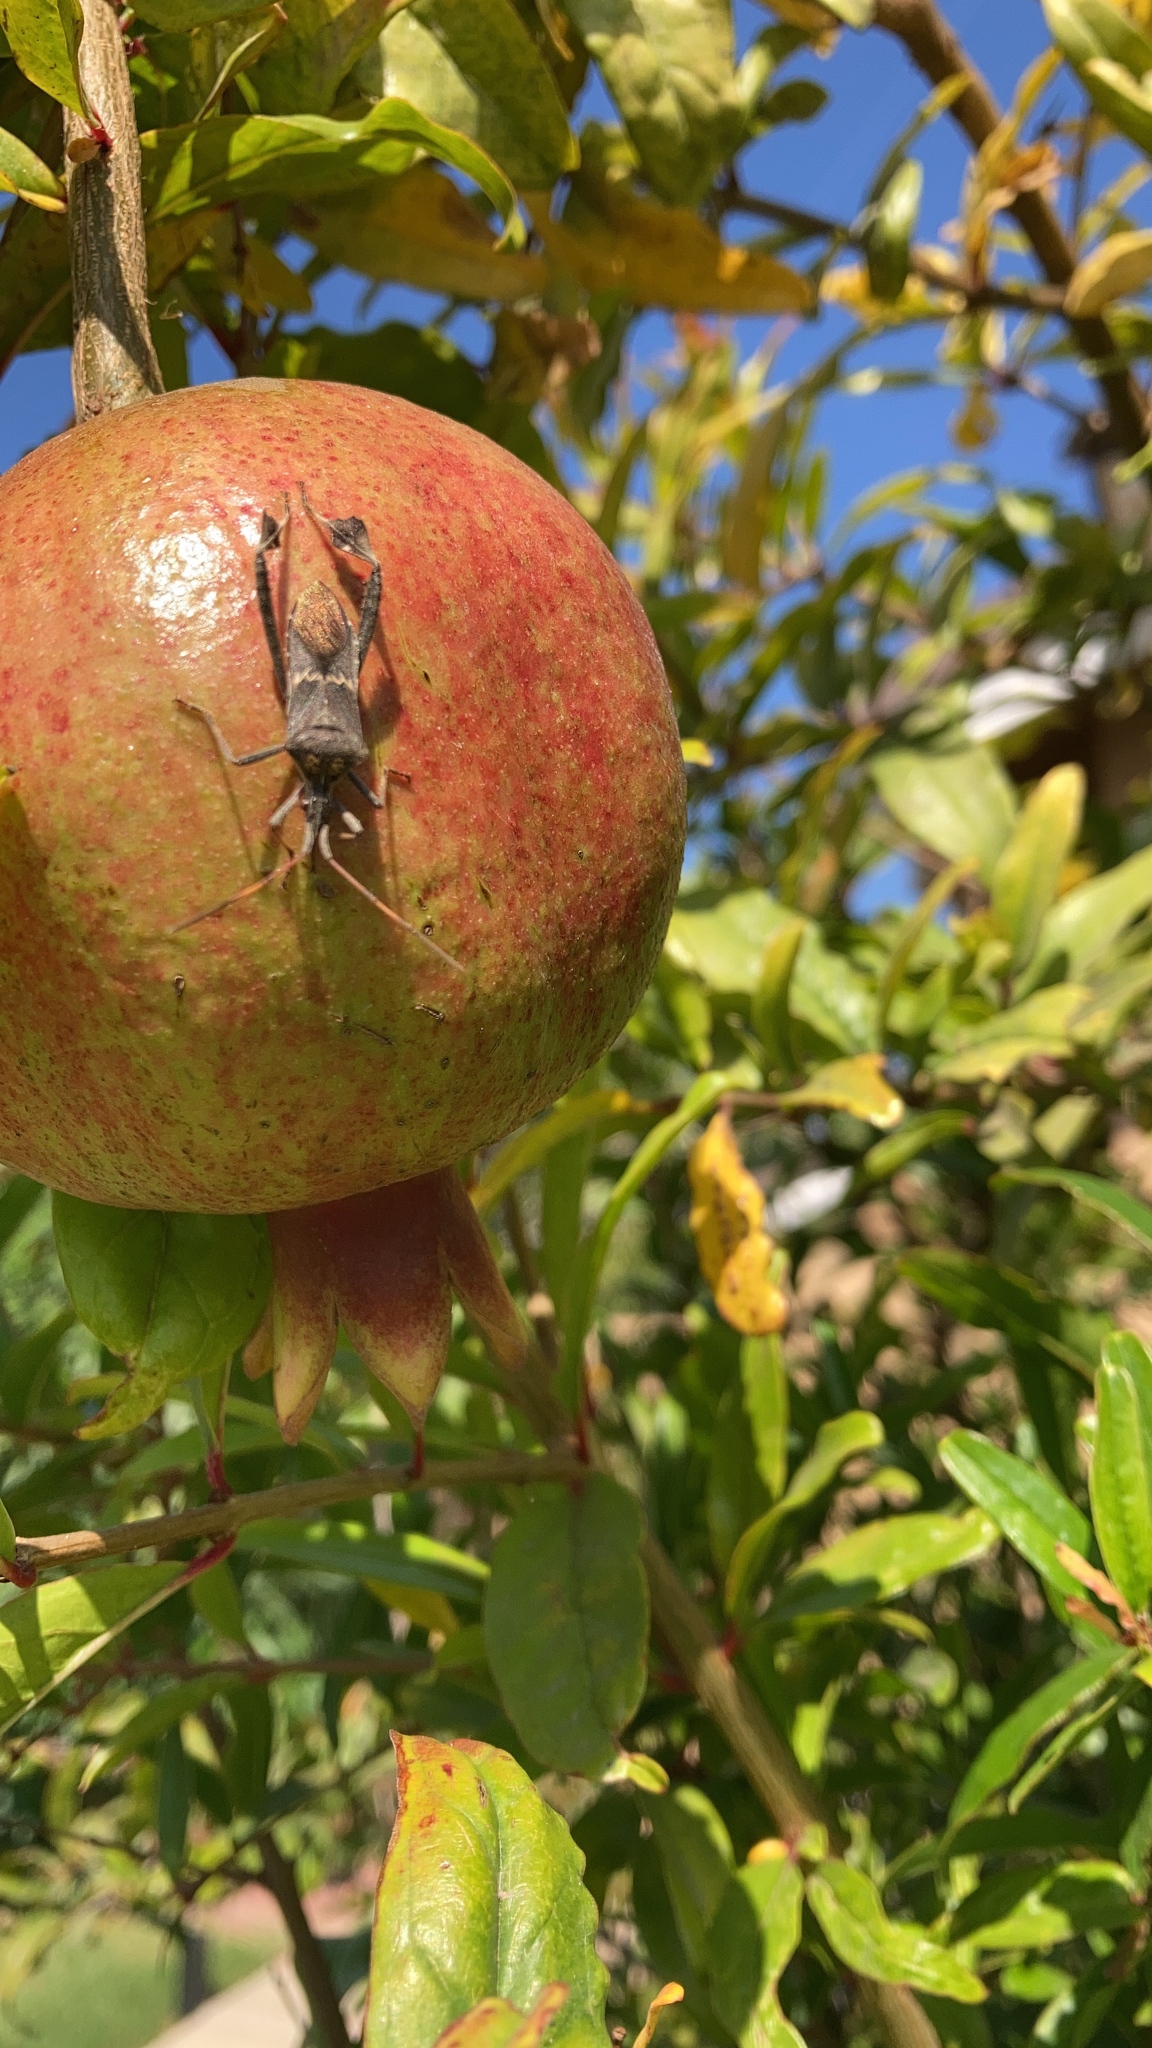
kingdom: Animalia
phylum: Arthropoda
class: Insecta
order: Hemiptera
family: Coreidae
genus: Leptoglossus
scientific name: Leptoglossus zonatus
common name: Large-legged bug
